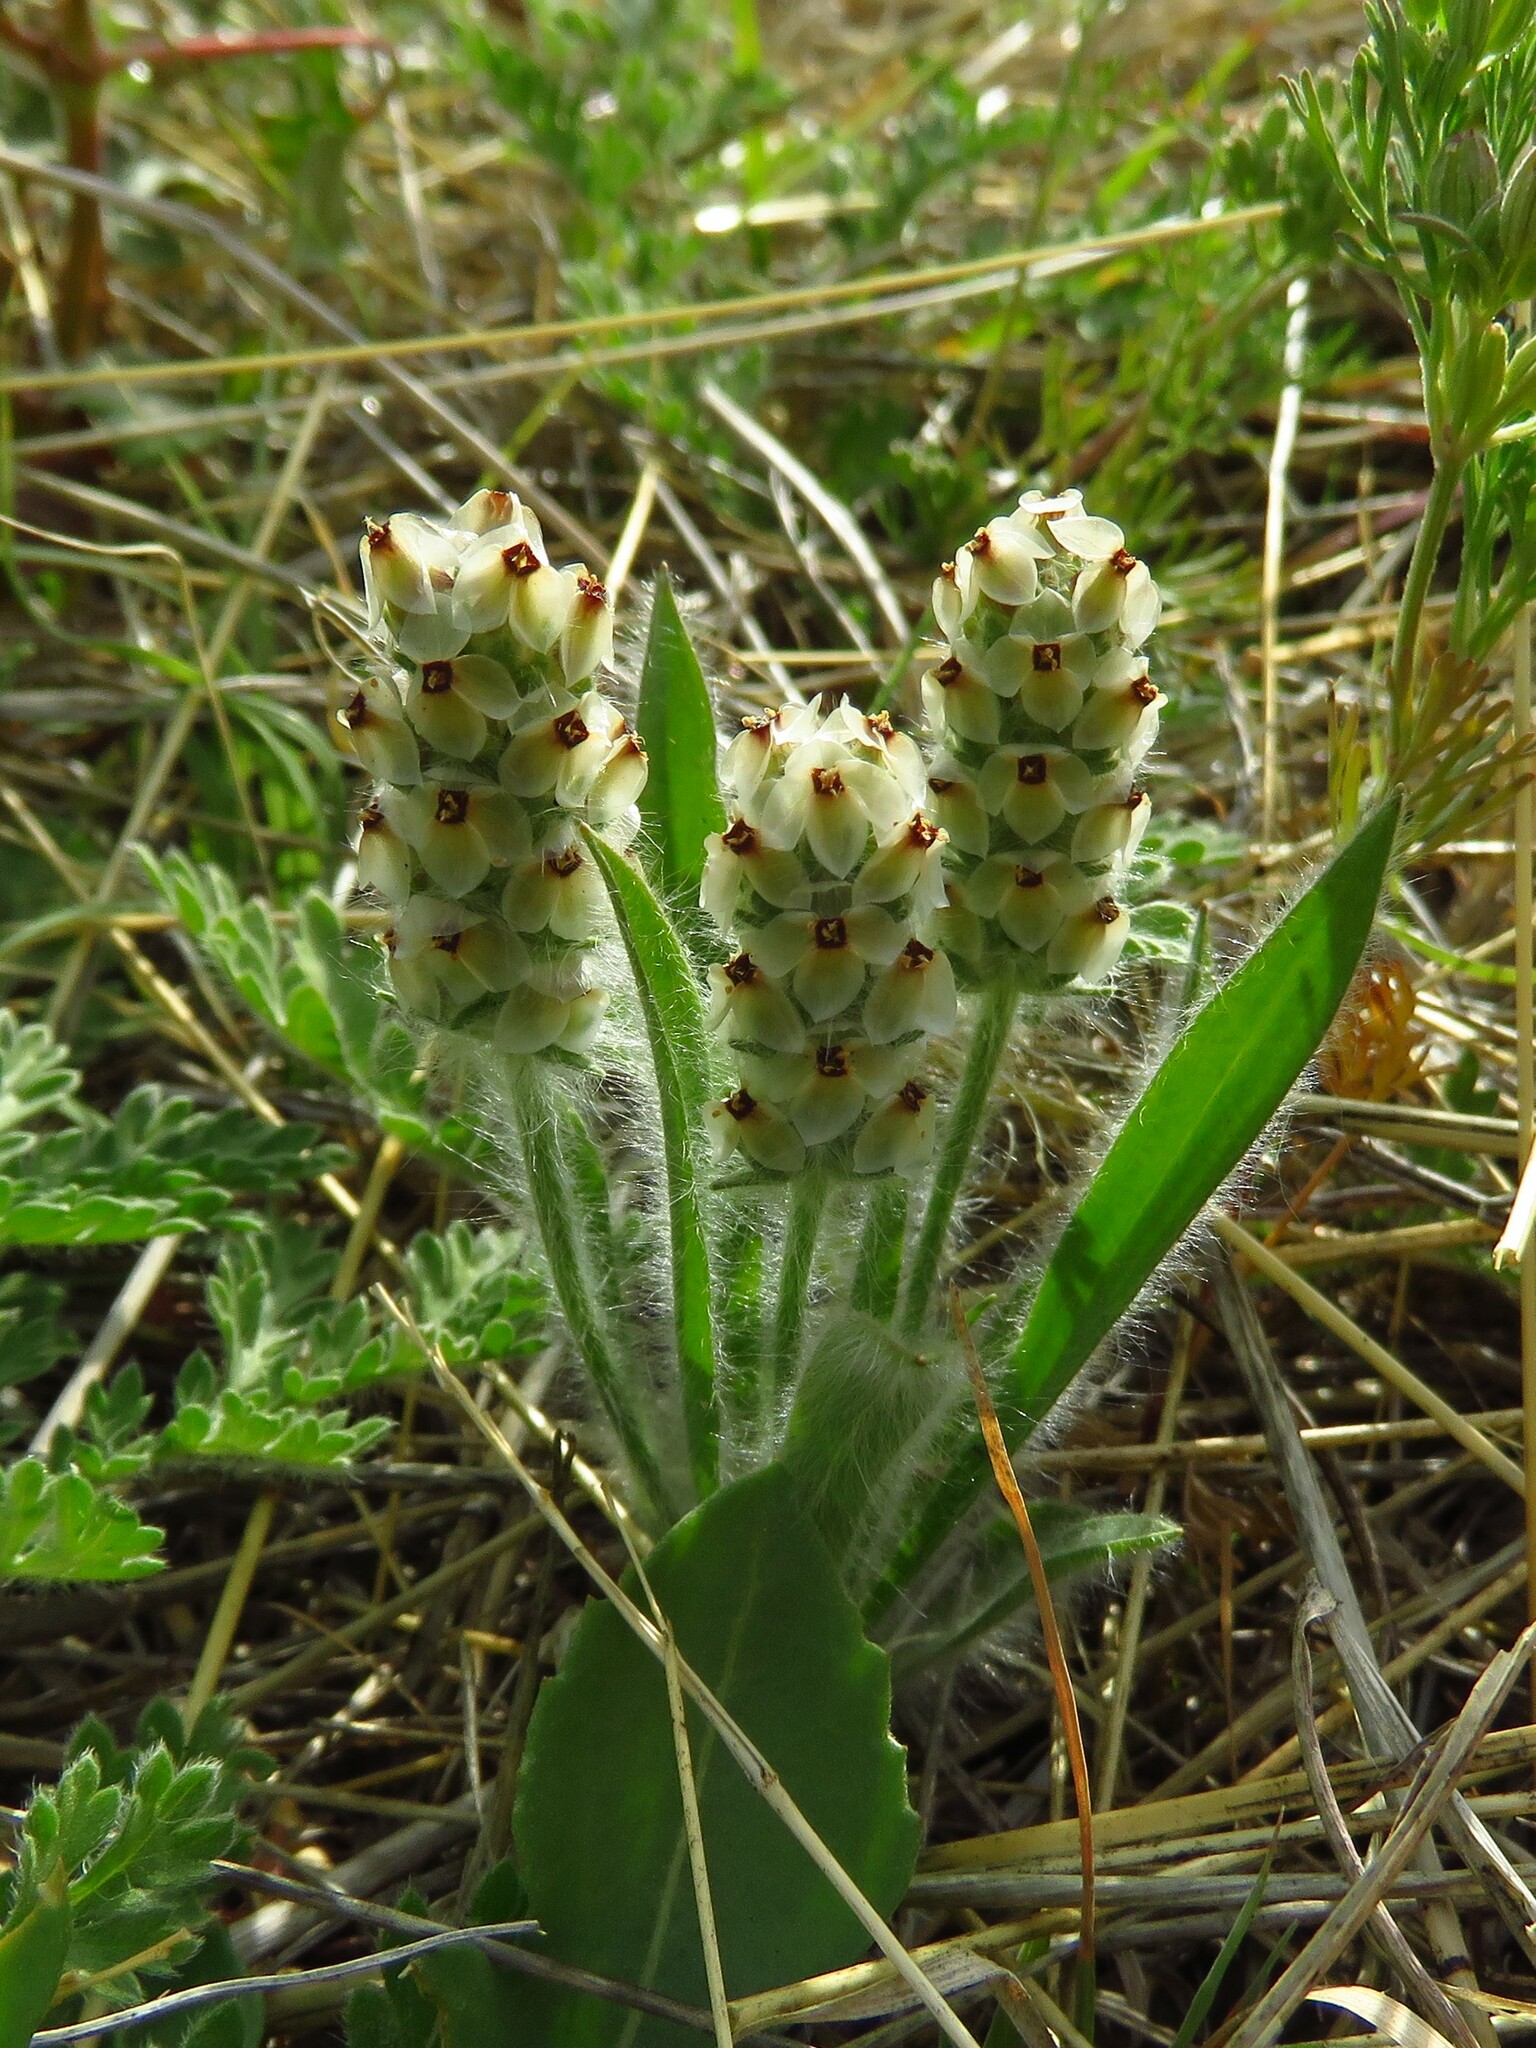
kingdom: Plantae
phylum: Tracheophyta
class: Magnoliopsida
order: Lamiales
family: Plantaginaceae
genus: Plantago
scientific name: Plantago helleri
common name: Heller's plantain
